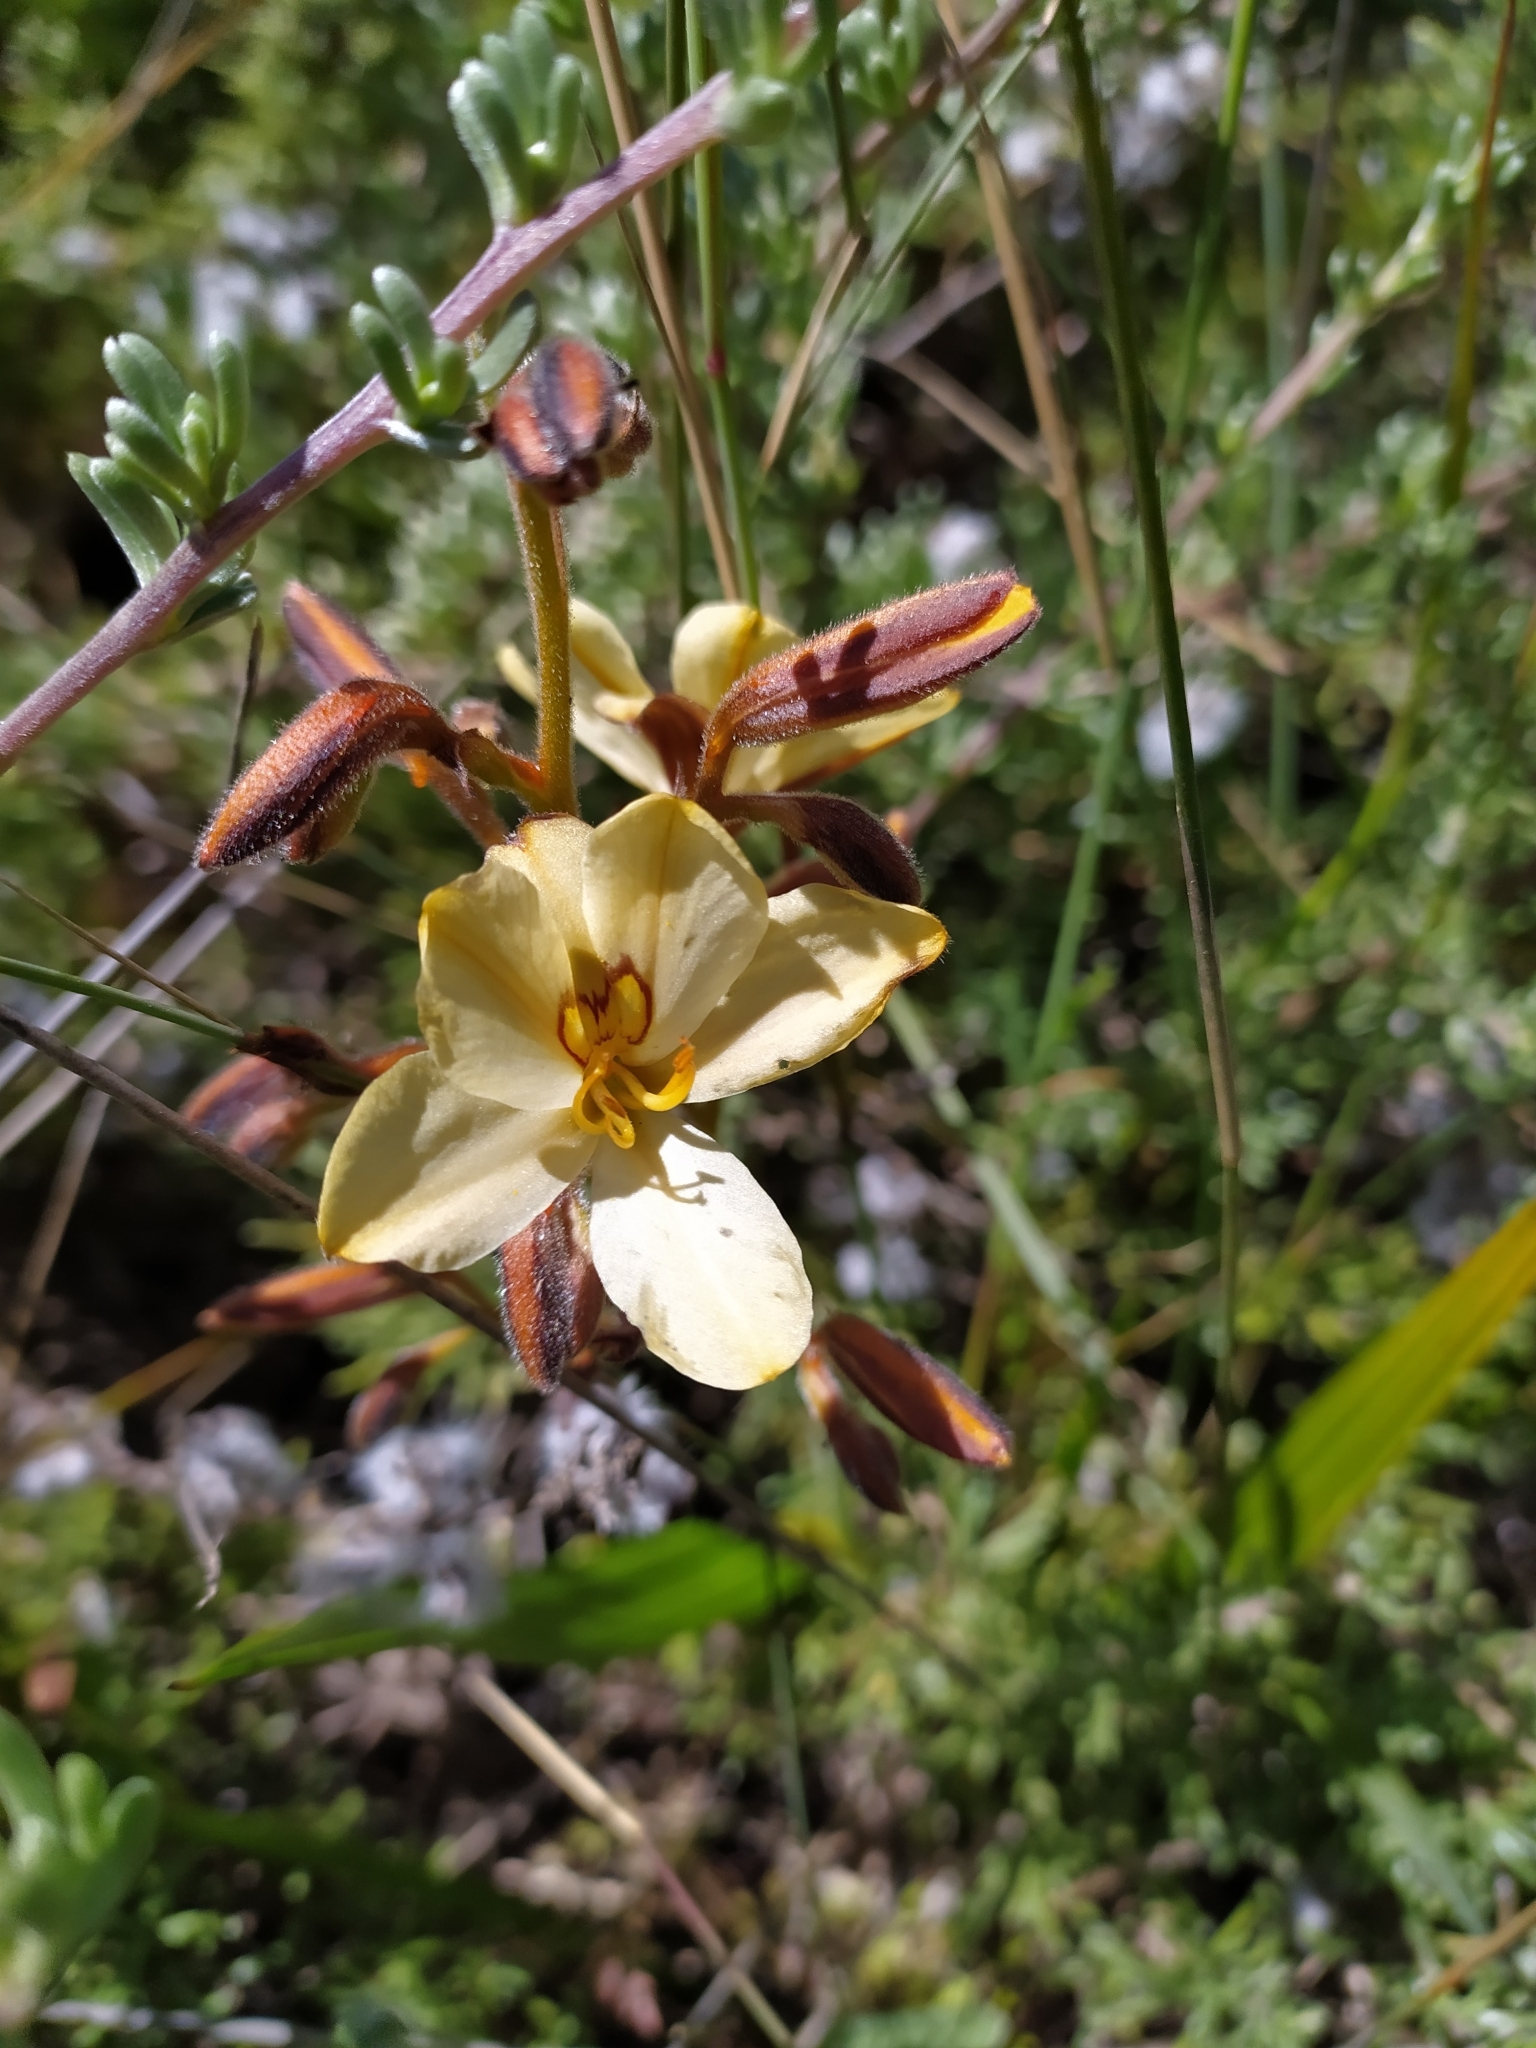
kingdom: Plantae
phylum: Tracheophyta
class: Liliopsida
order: Commelinales
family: Haemodoraceae
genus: Wachendorfia
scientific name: Wachendorfia paniculata
